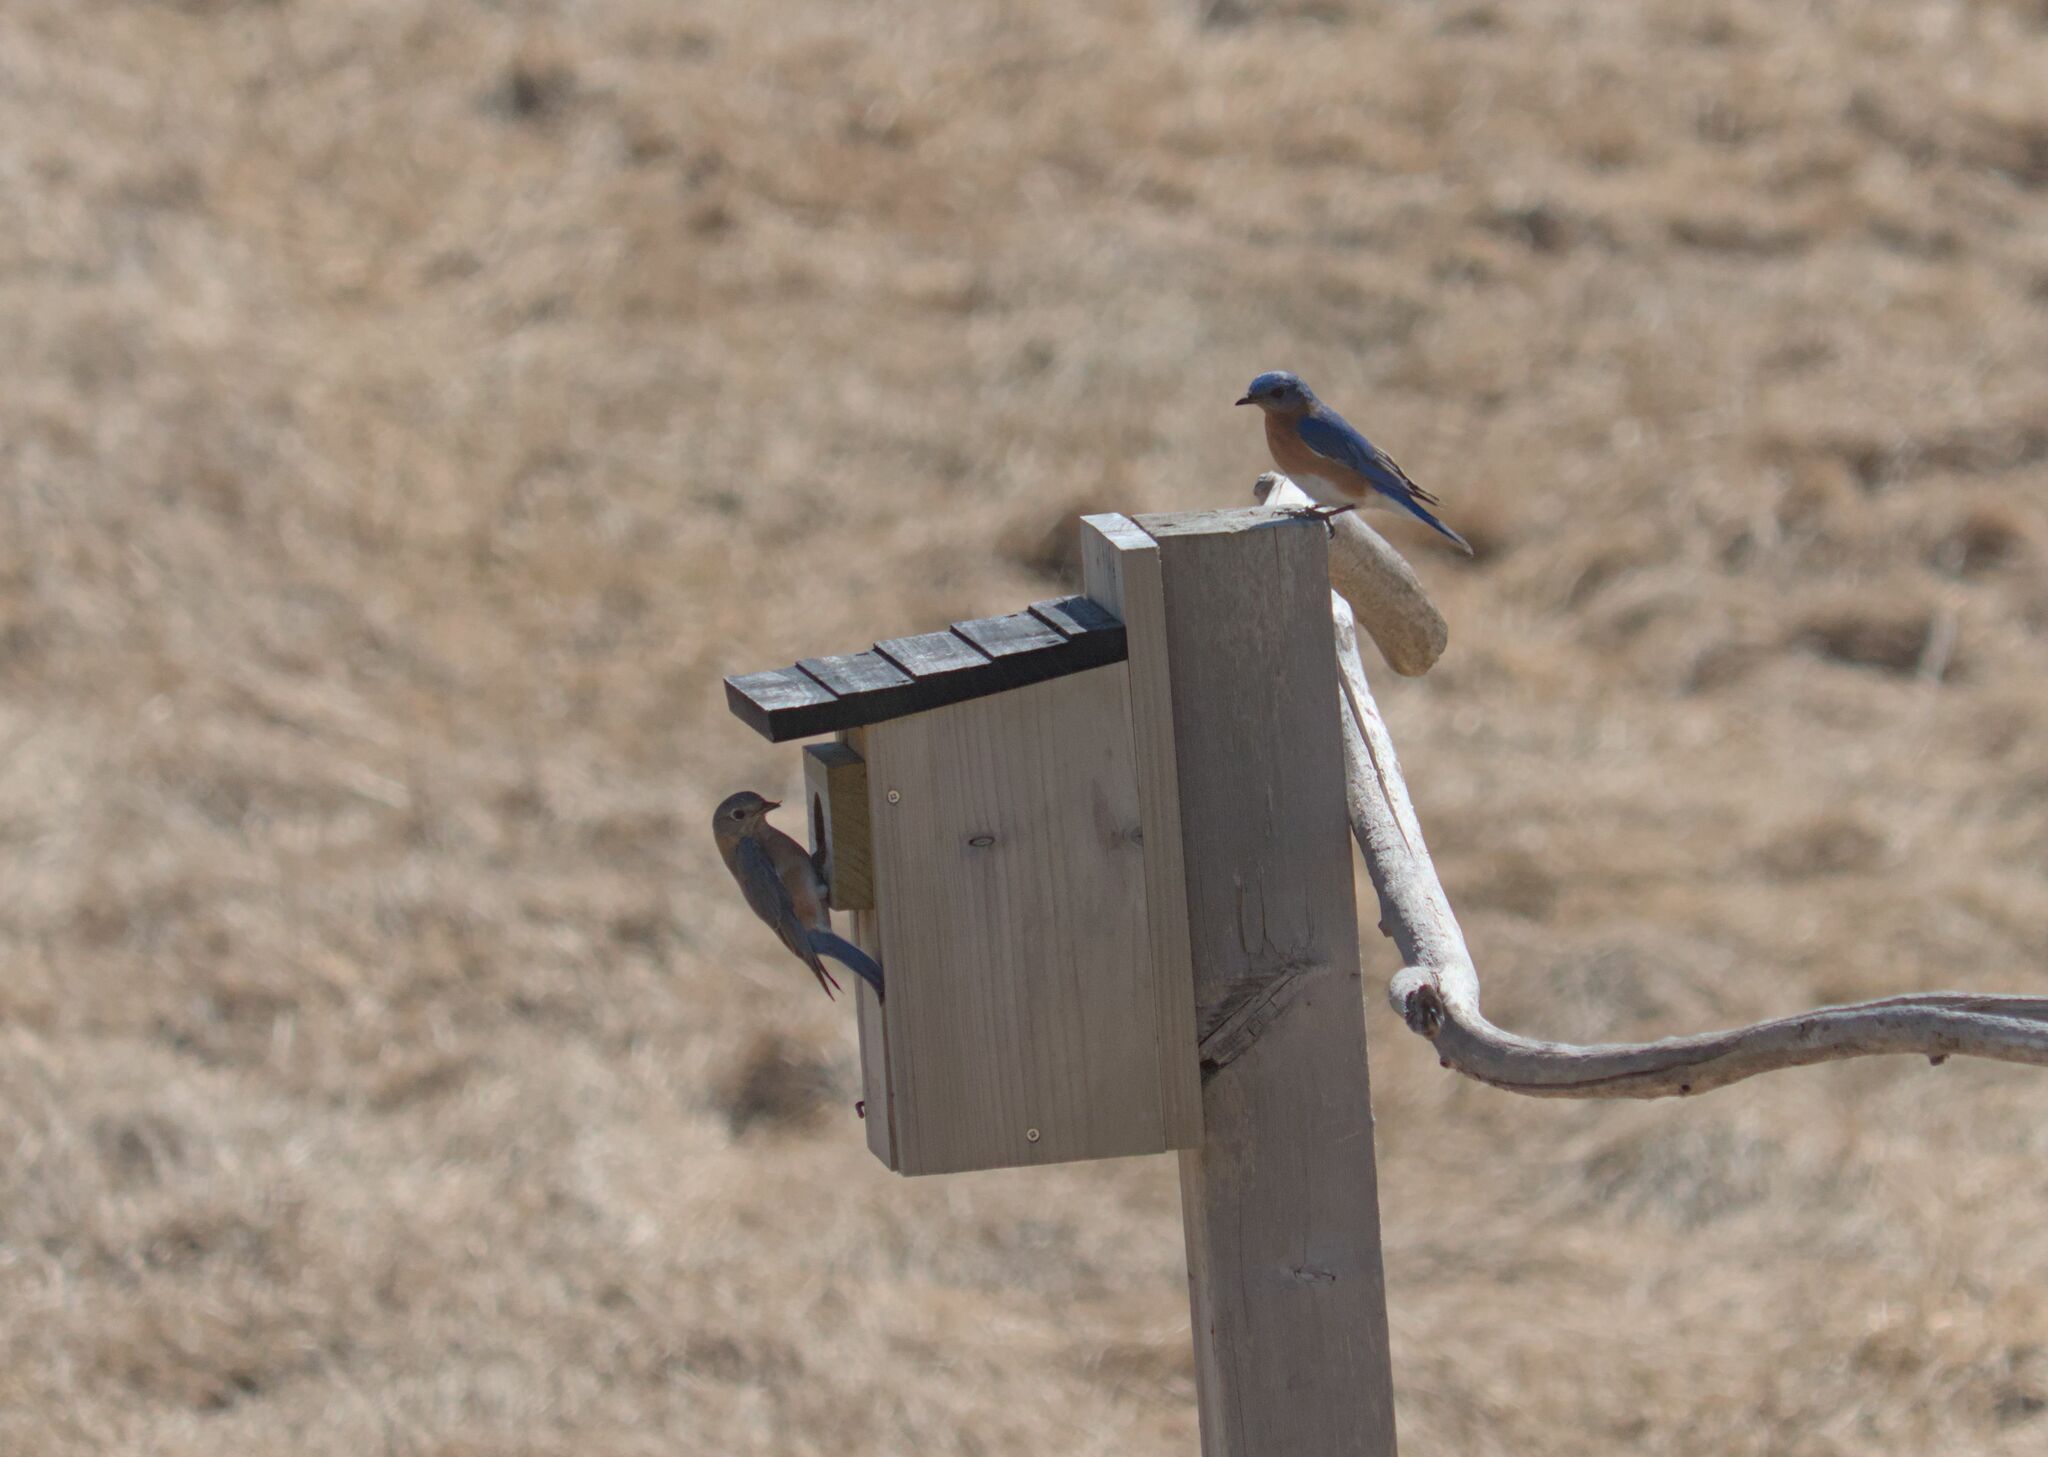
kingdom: Animalia
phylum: Chordata
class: Aves
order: Passeriformes
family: Turdidae
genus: Sialia
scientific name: Sialia sialis
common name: Eastern bluebird
